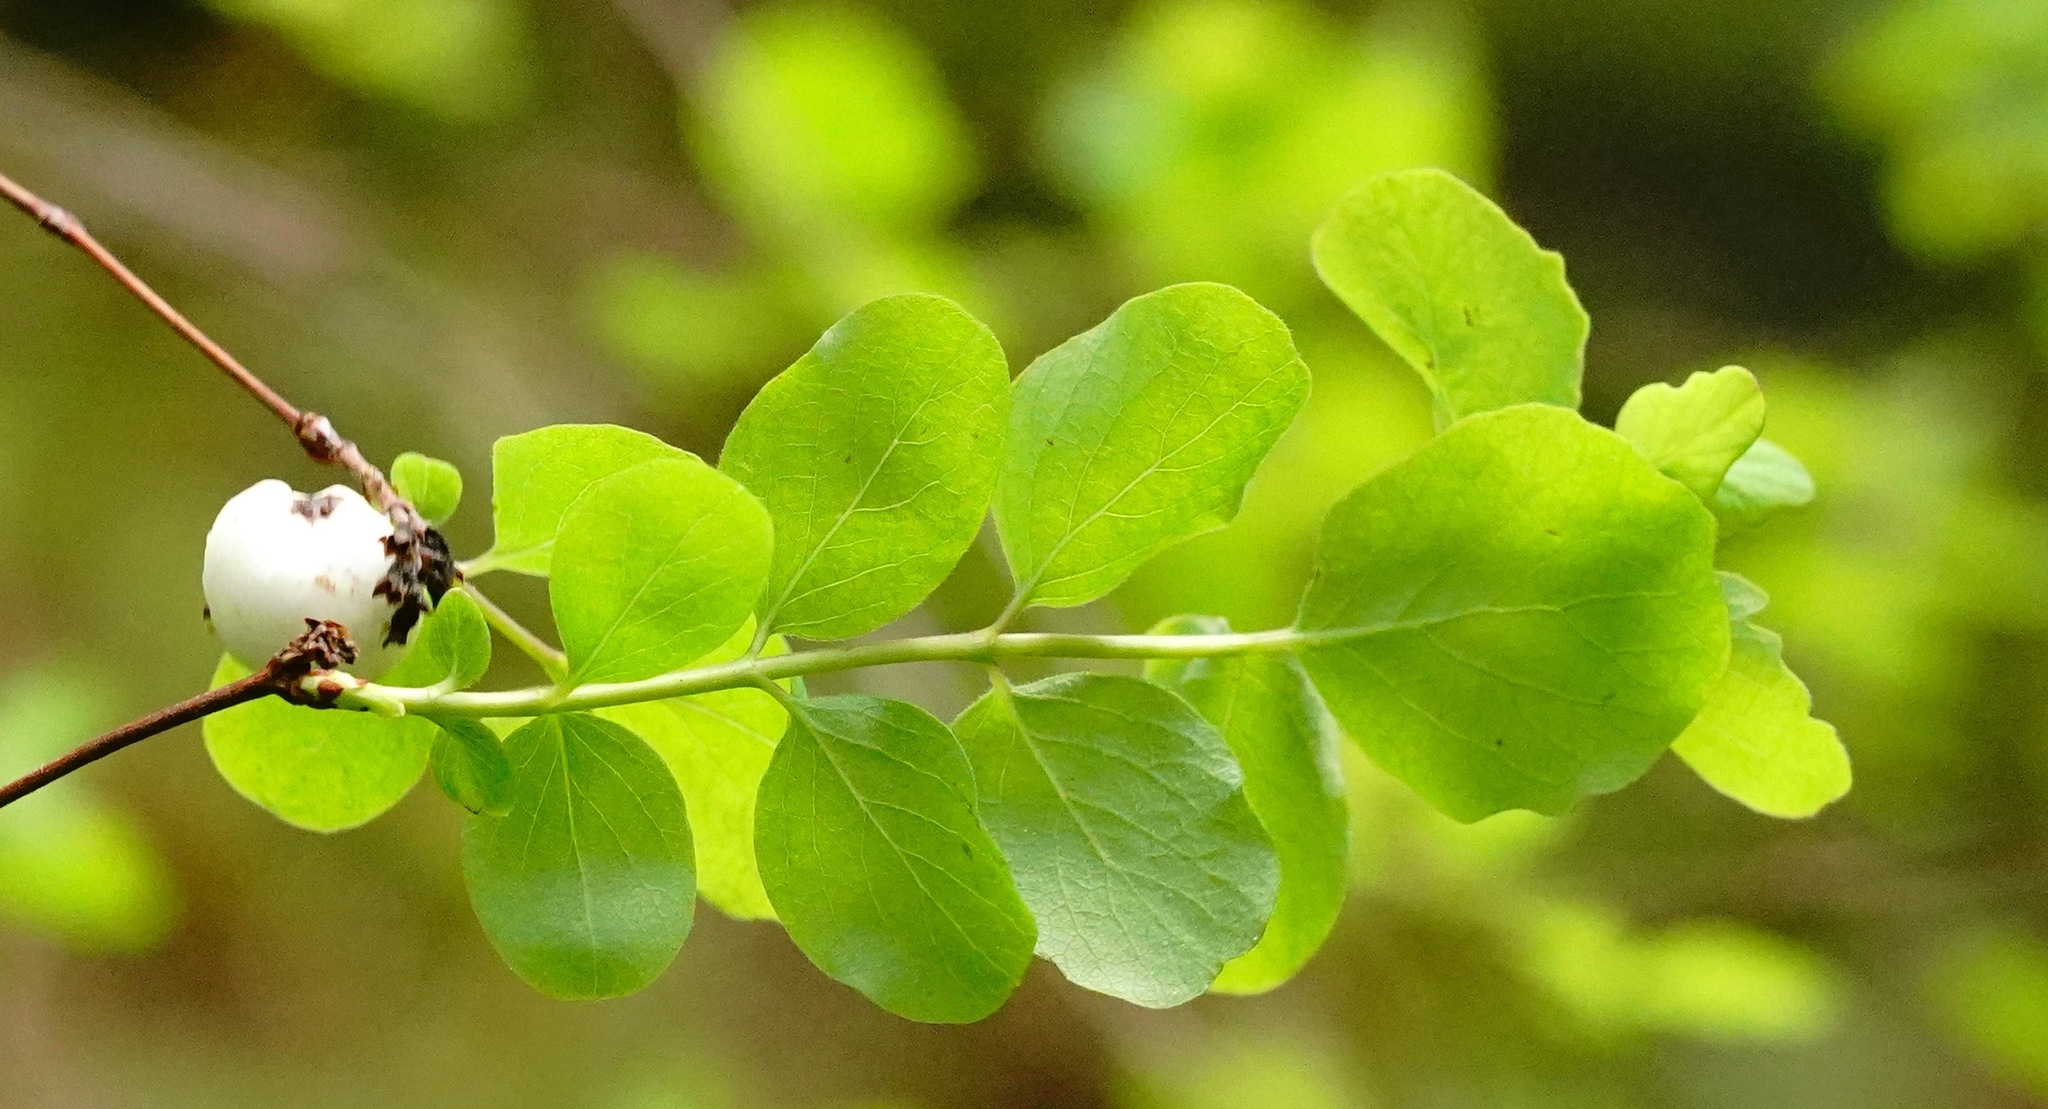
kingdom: Plantae
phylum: Tracheophyta
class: Magnoliopsida
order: Dipsacales
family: Caprifoliaceae
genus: Symphoricarpos
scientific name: Symphoricarpos albus
